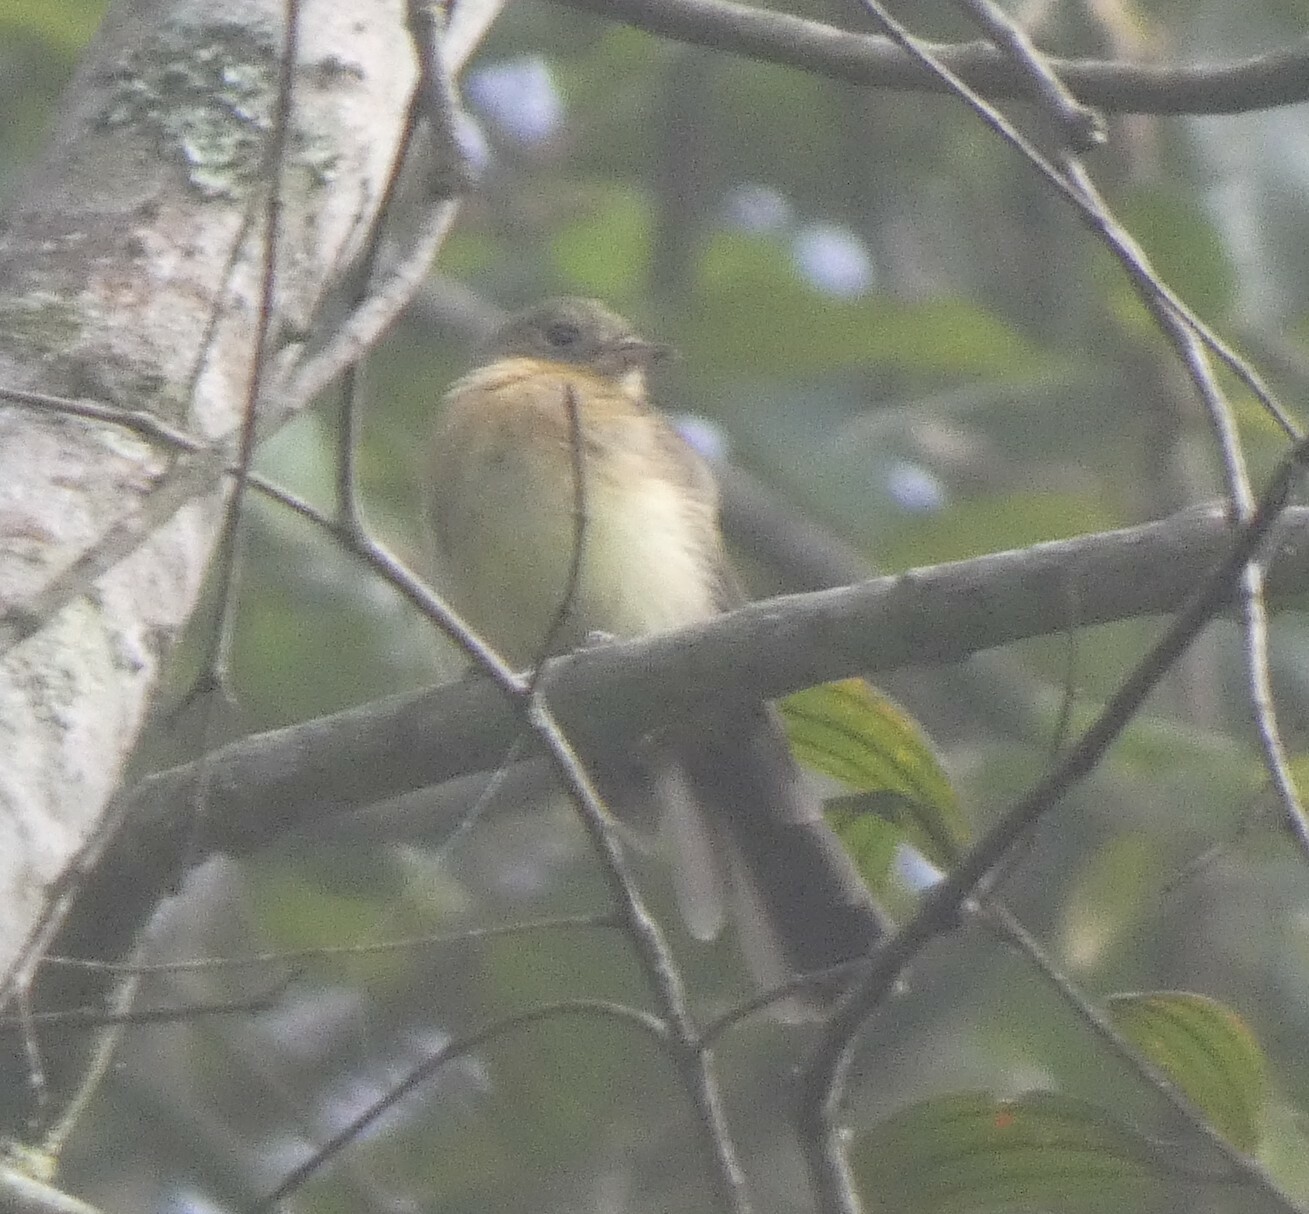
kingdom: Animalia
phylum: Chordata
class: Aves
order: Passeriformes
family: Tyrannidae
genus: Myiobius
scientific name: Myiobius barbatus
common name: Whiskered myiobius
